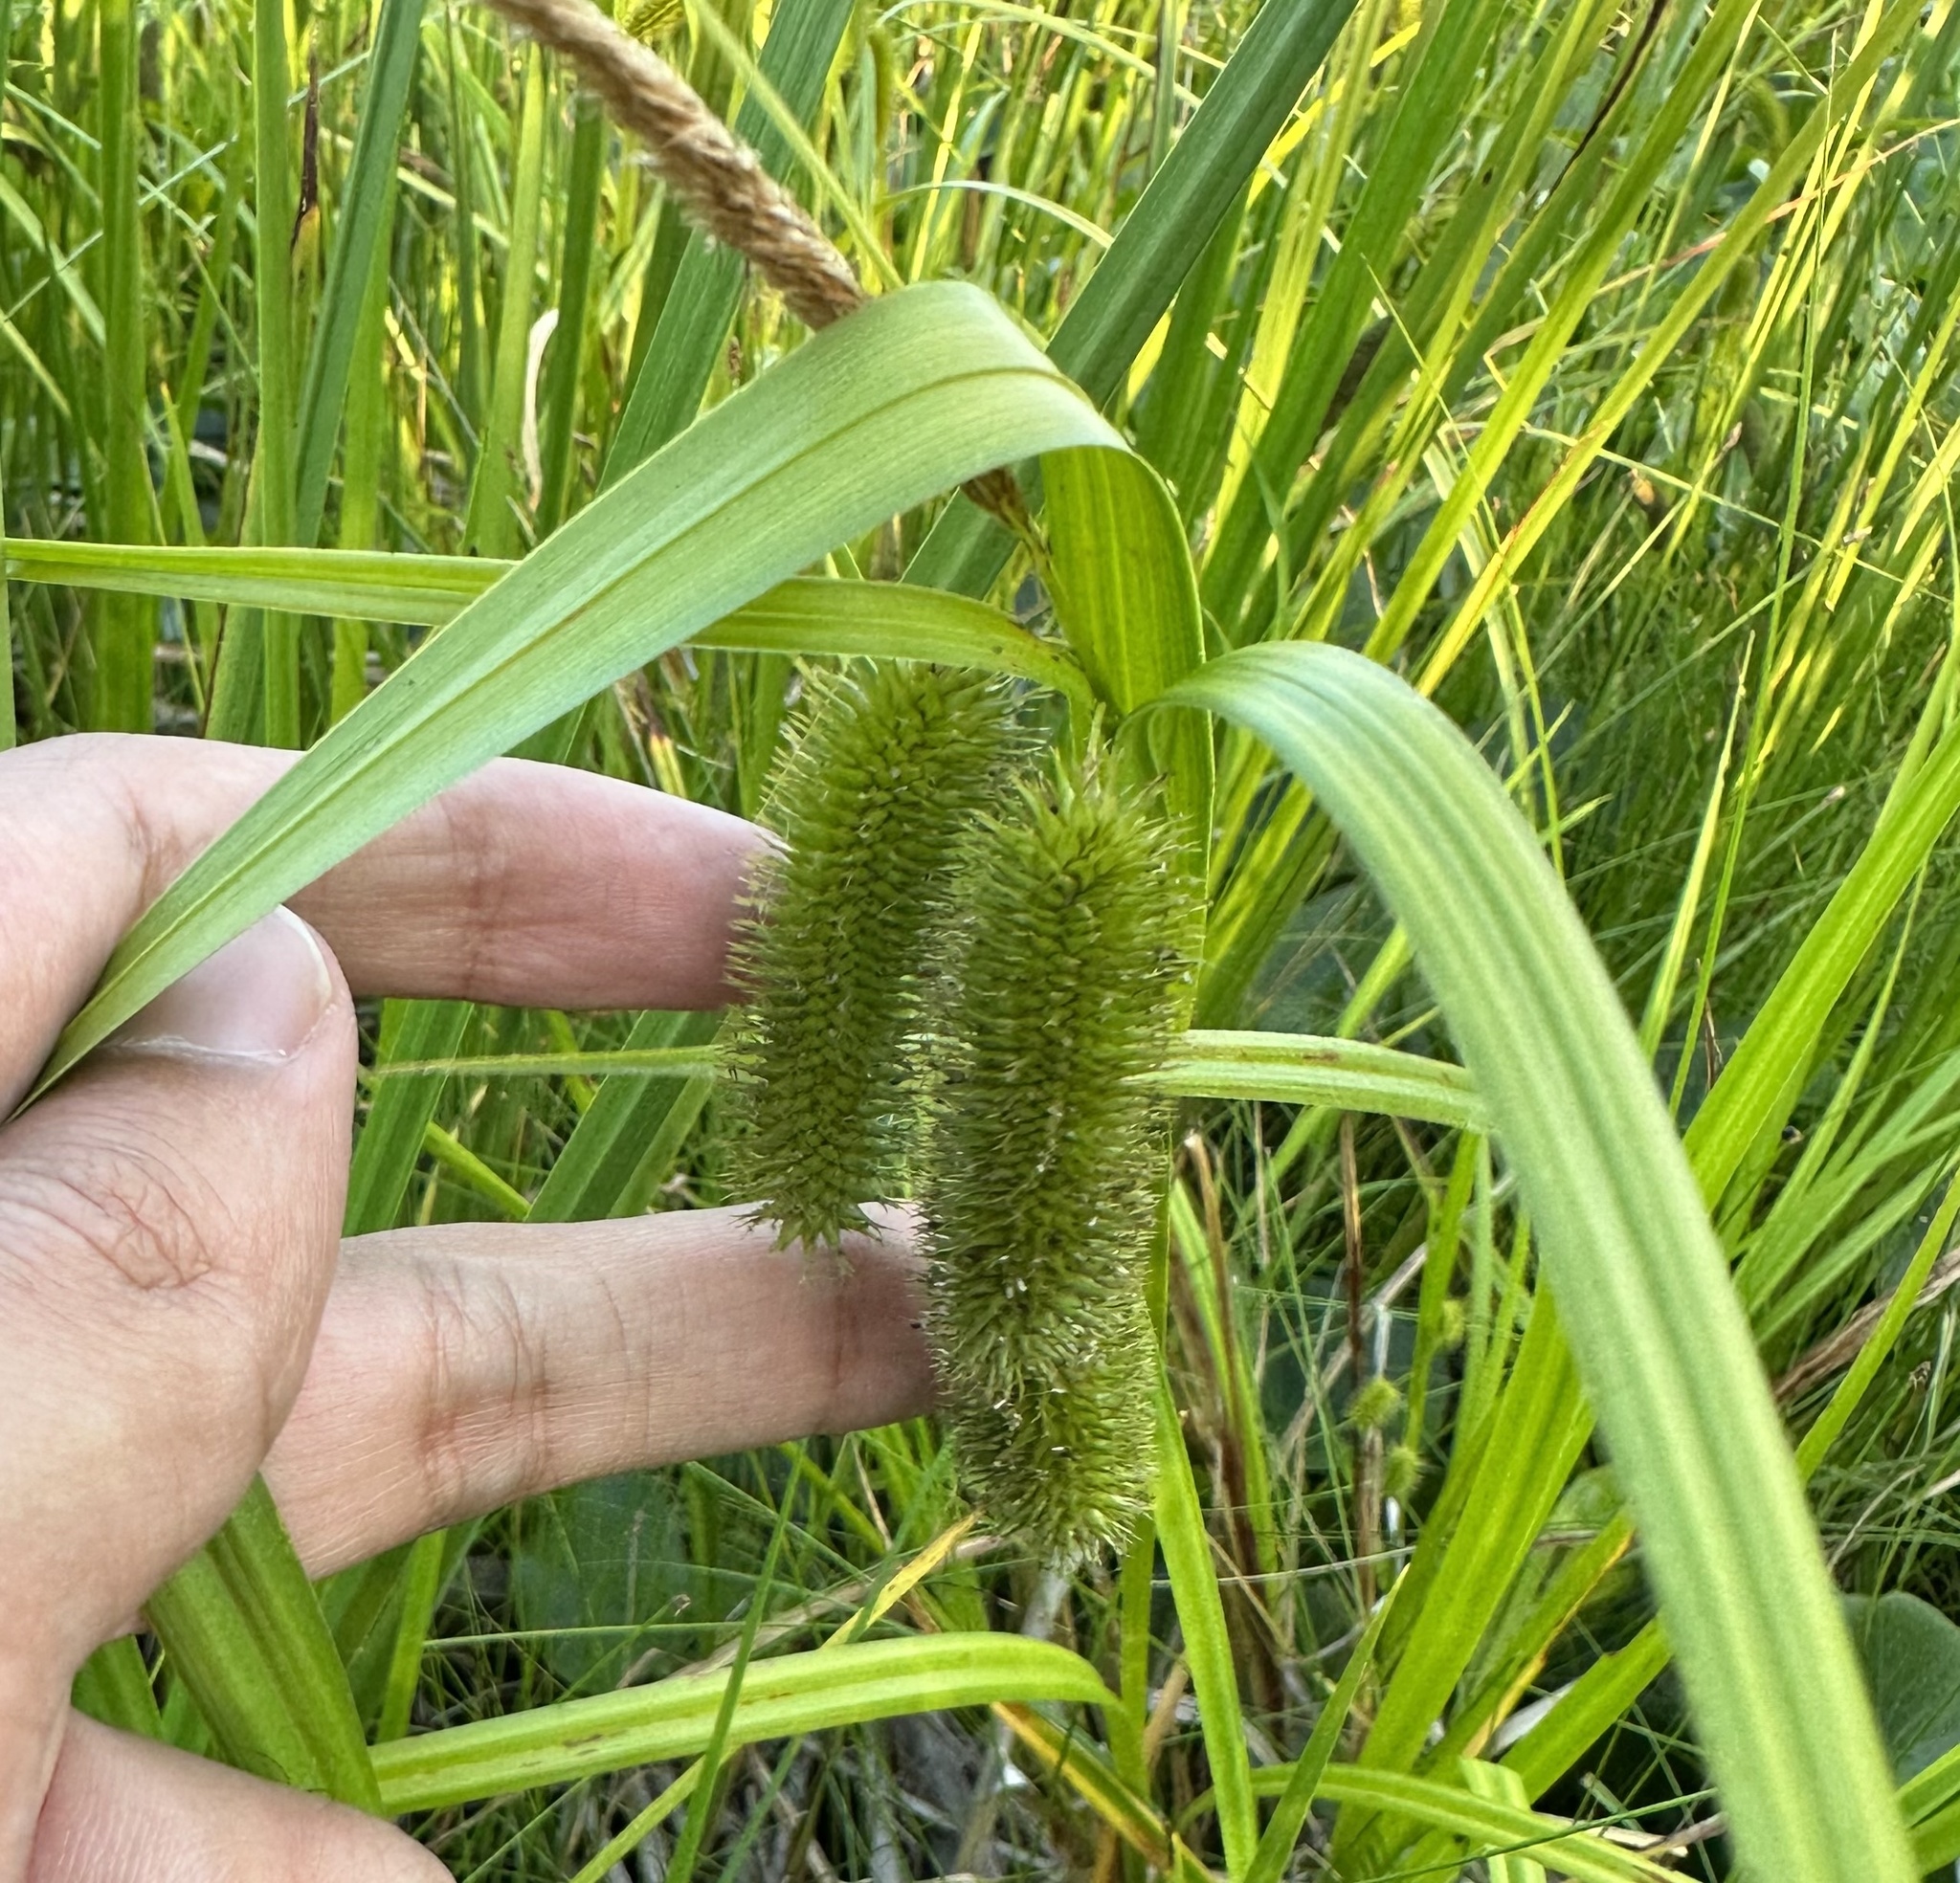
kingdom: Plantae
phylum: Tracheophyta
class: Liliopsida
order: Poales
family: Cyperaceae
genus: Carex
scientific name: Carex comosa
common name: Bristly sedge
